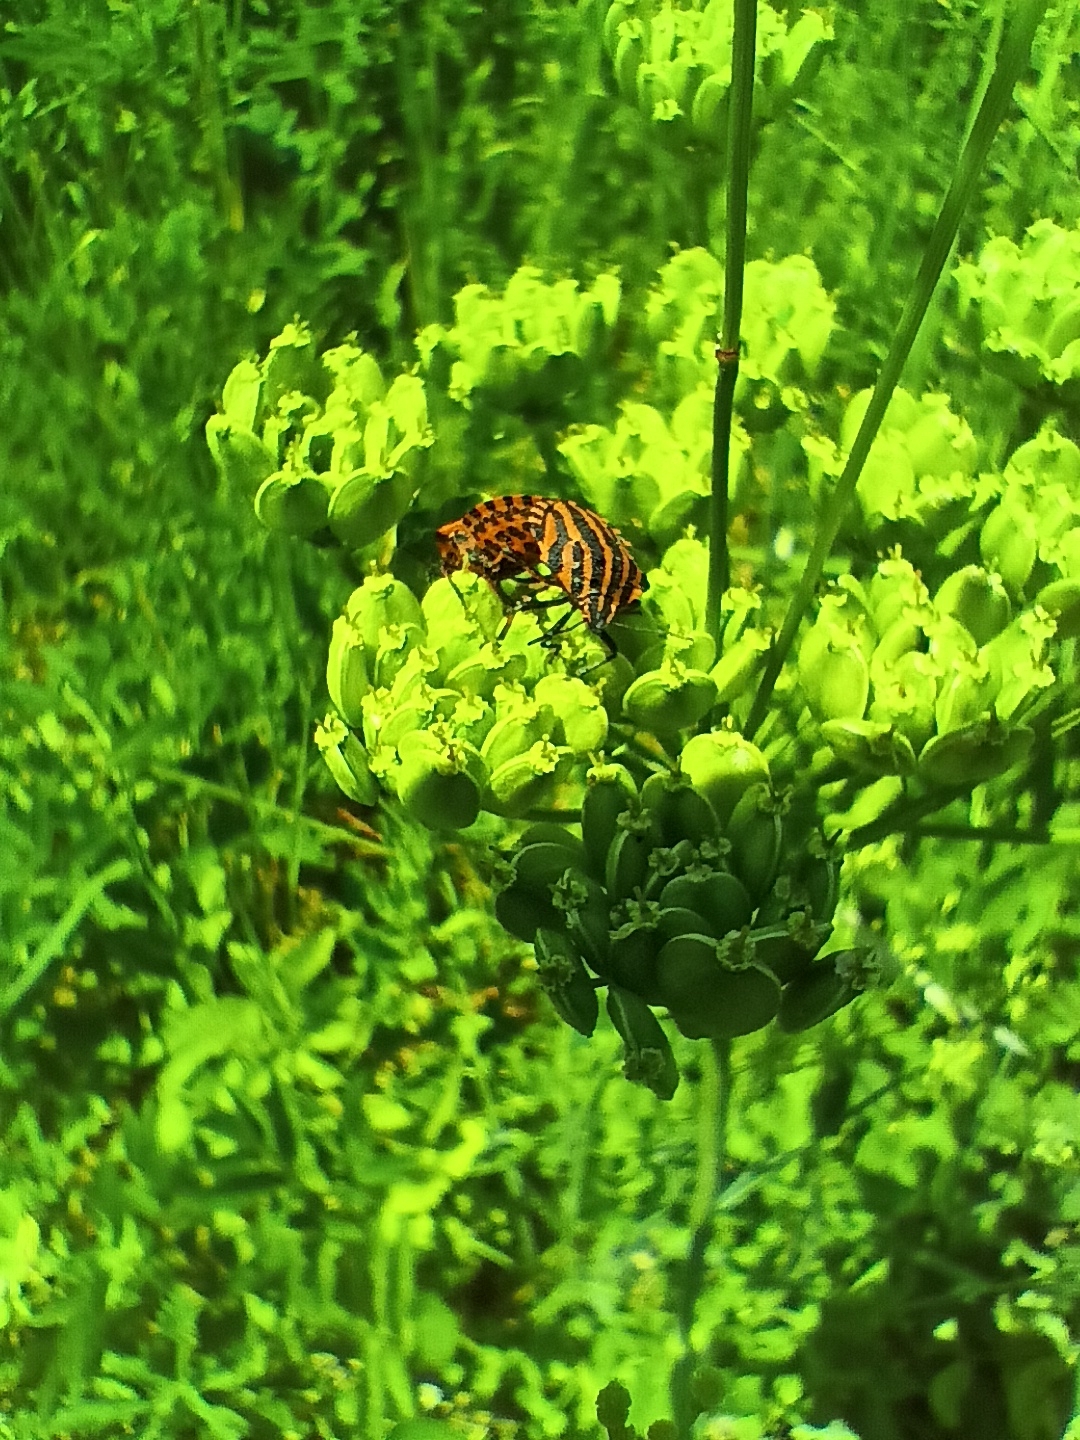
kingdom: Animalia
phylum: Arthropoda
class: Insecta
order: Hemiptera
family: Pentatomidae
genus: Graphosoma
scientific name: Graphosoma italicum
